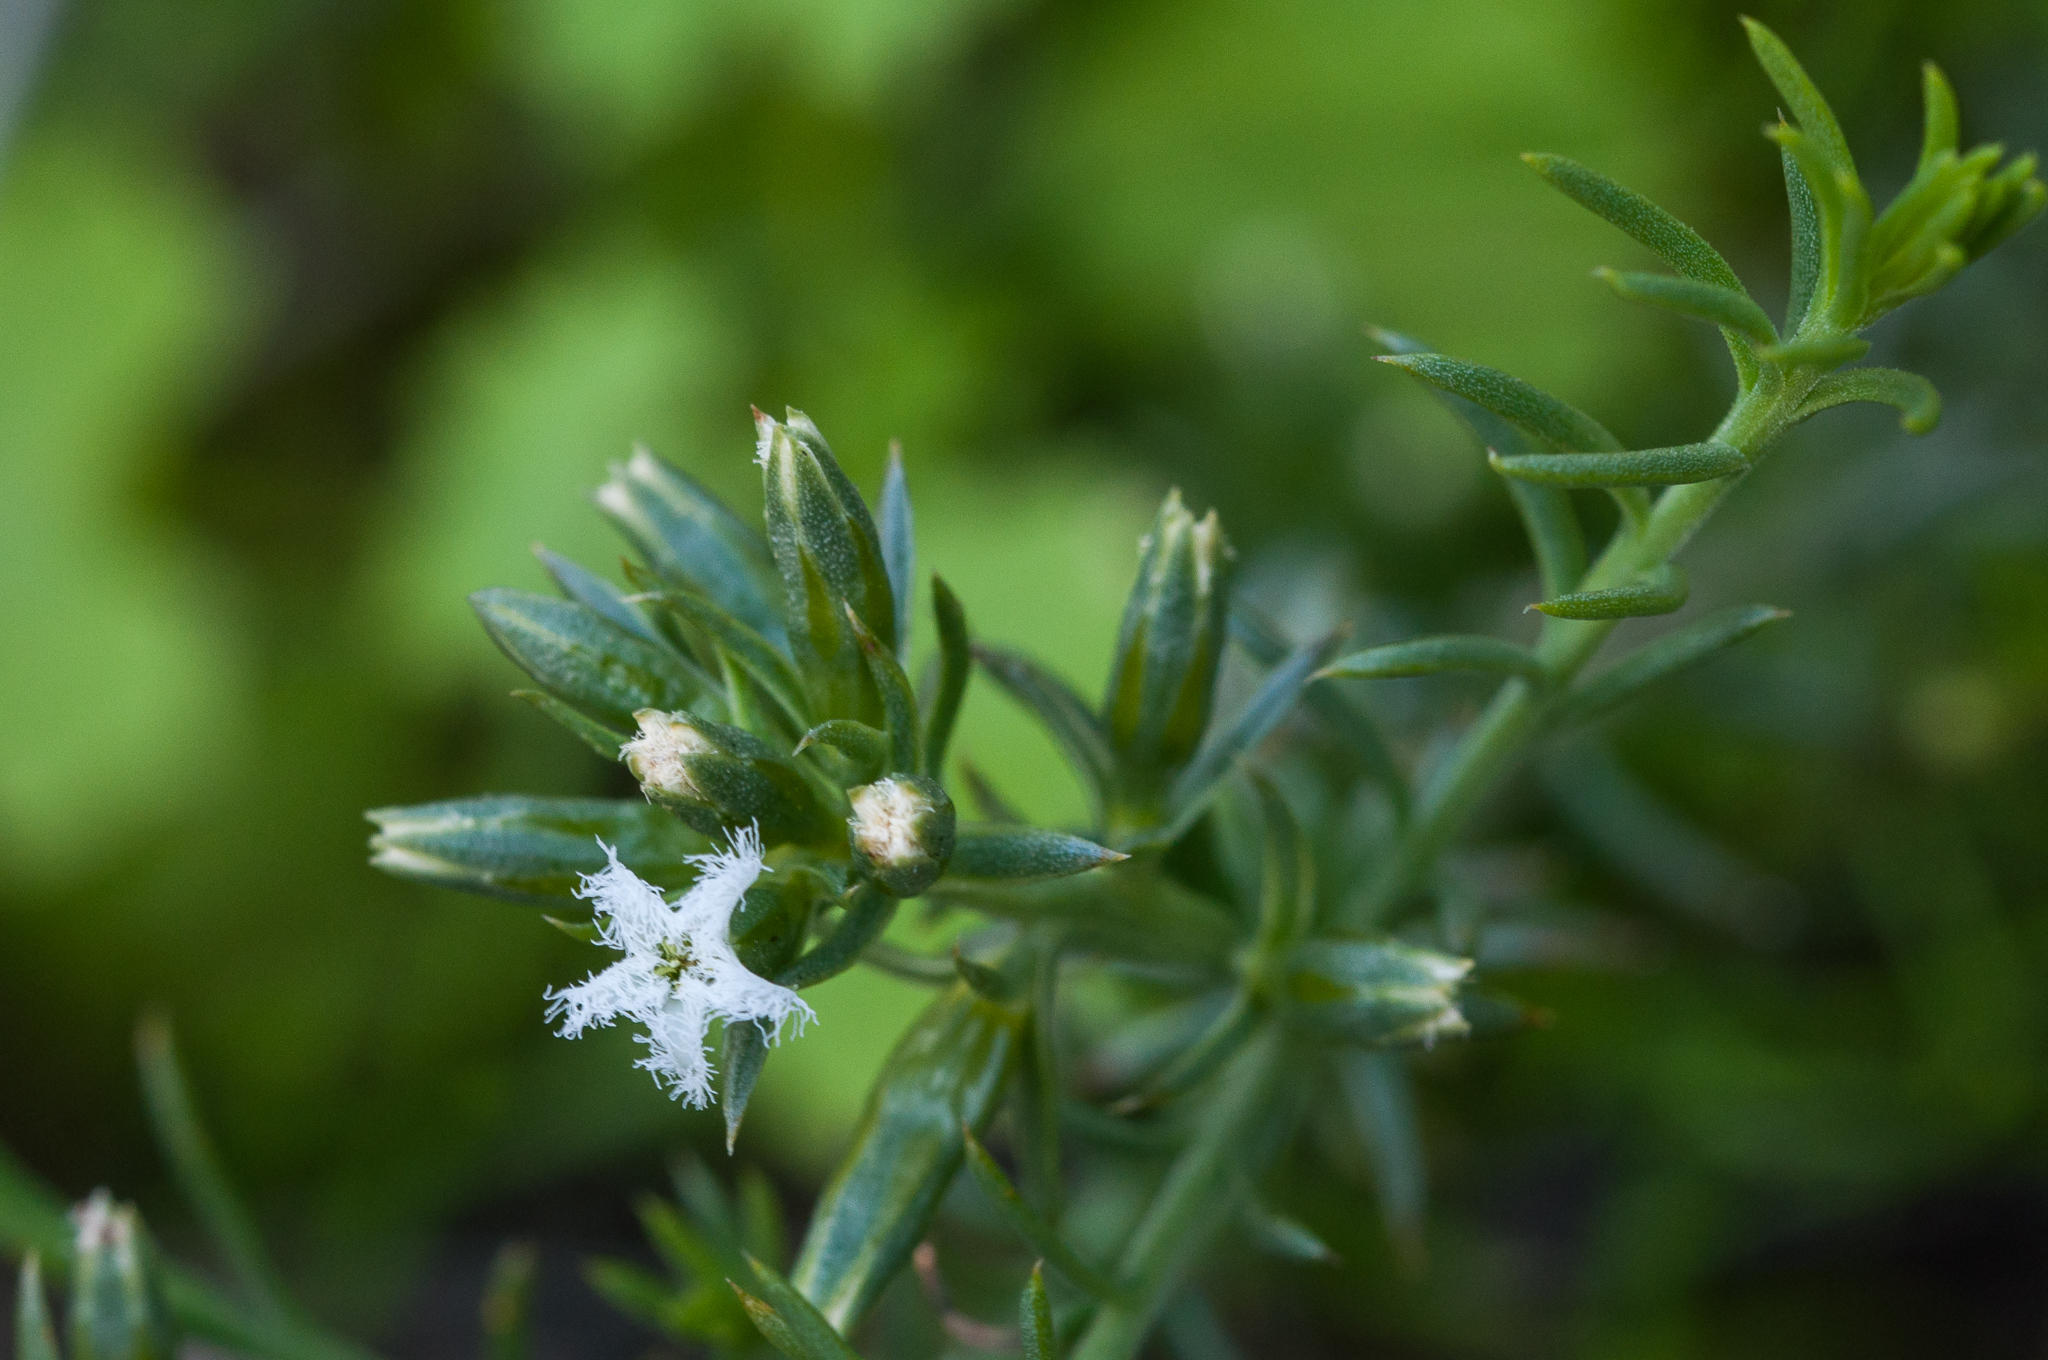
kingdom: Plantae
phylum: Tracheophyta
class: Magnoliopsida
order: Santalales
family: Thesiaceae
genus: Thesium
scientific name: Thesium sonderianum
